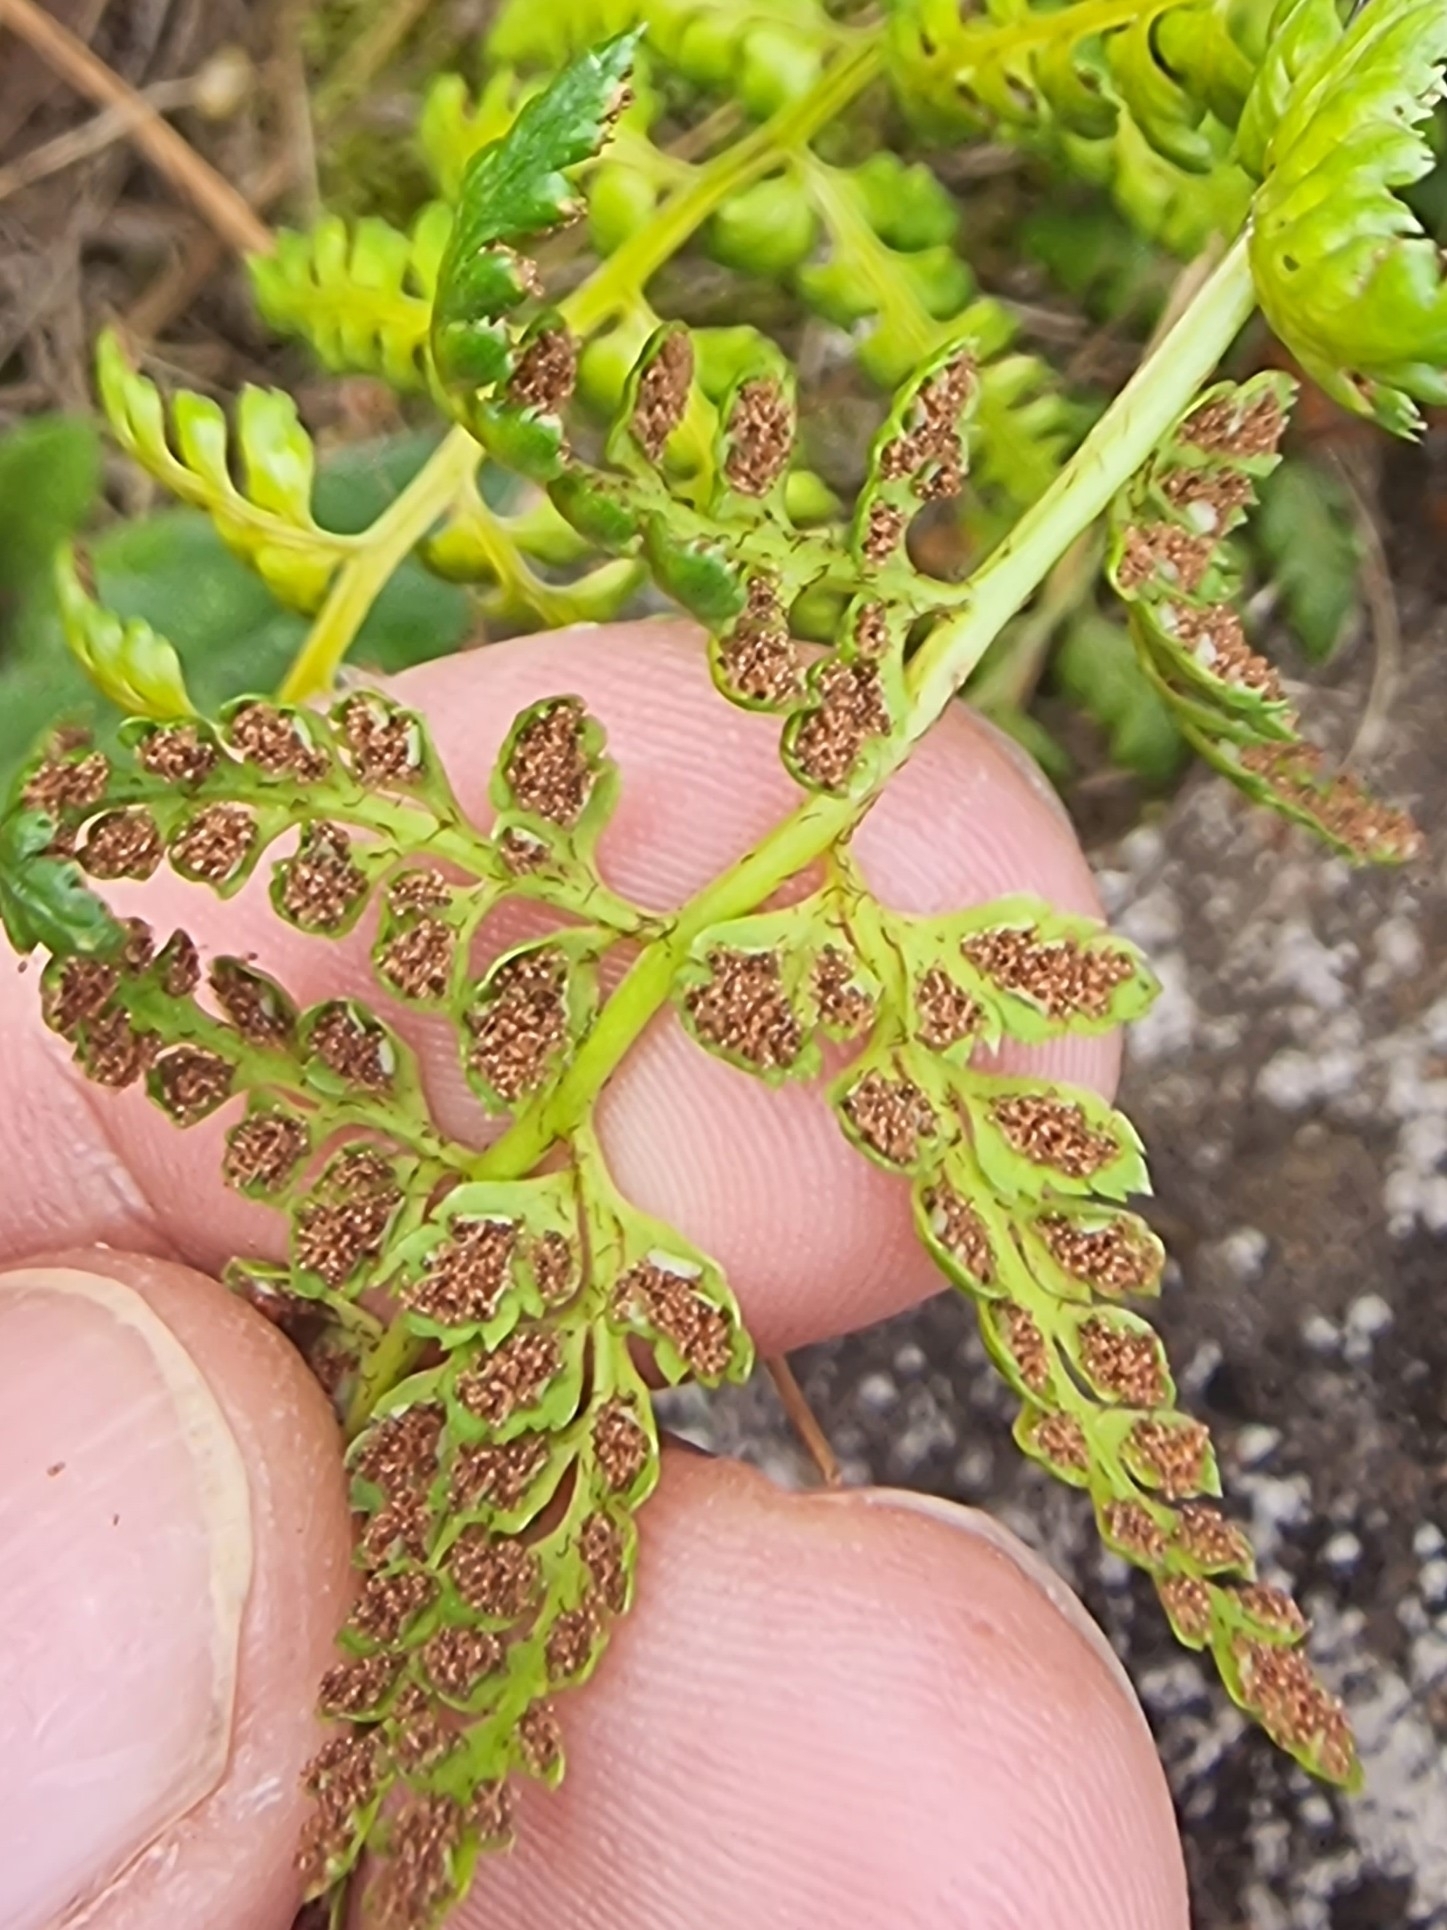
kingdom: Plantae
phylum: Tracheophyta
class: Polypodiopsida
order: Polypodiales
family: Aspleniaceae
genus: Asplenium
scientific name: Asplenium obovatum
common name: Lanceolate spleenwort
